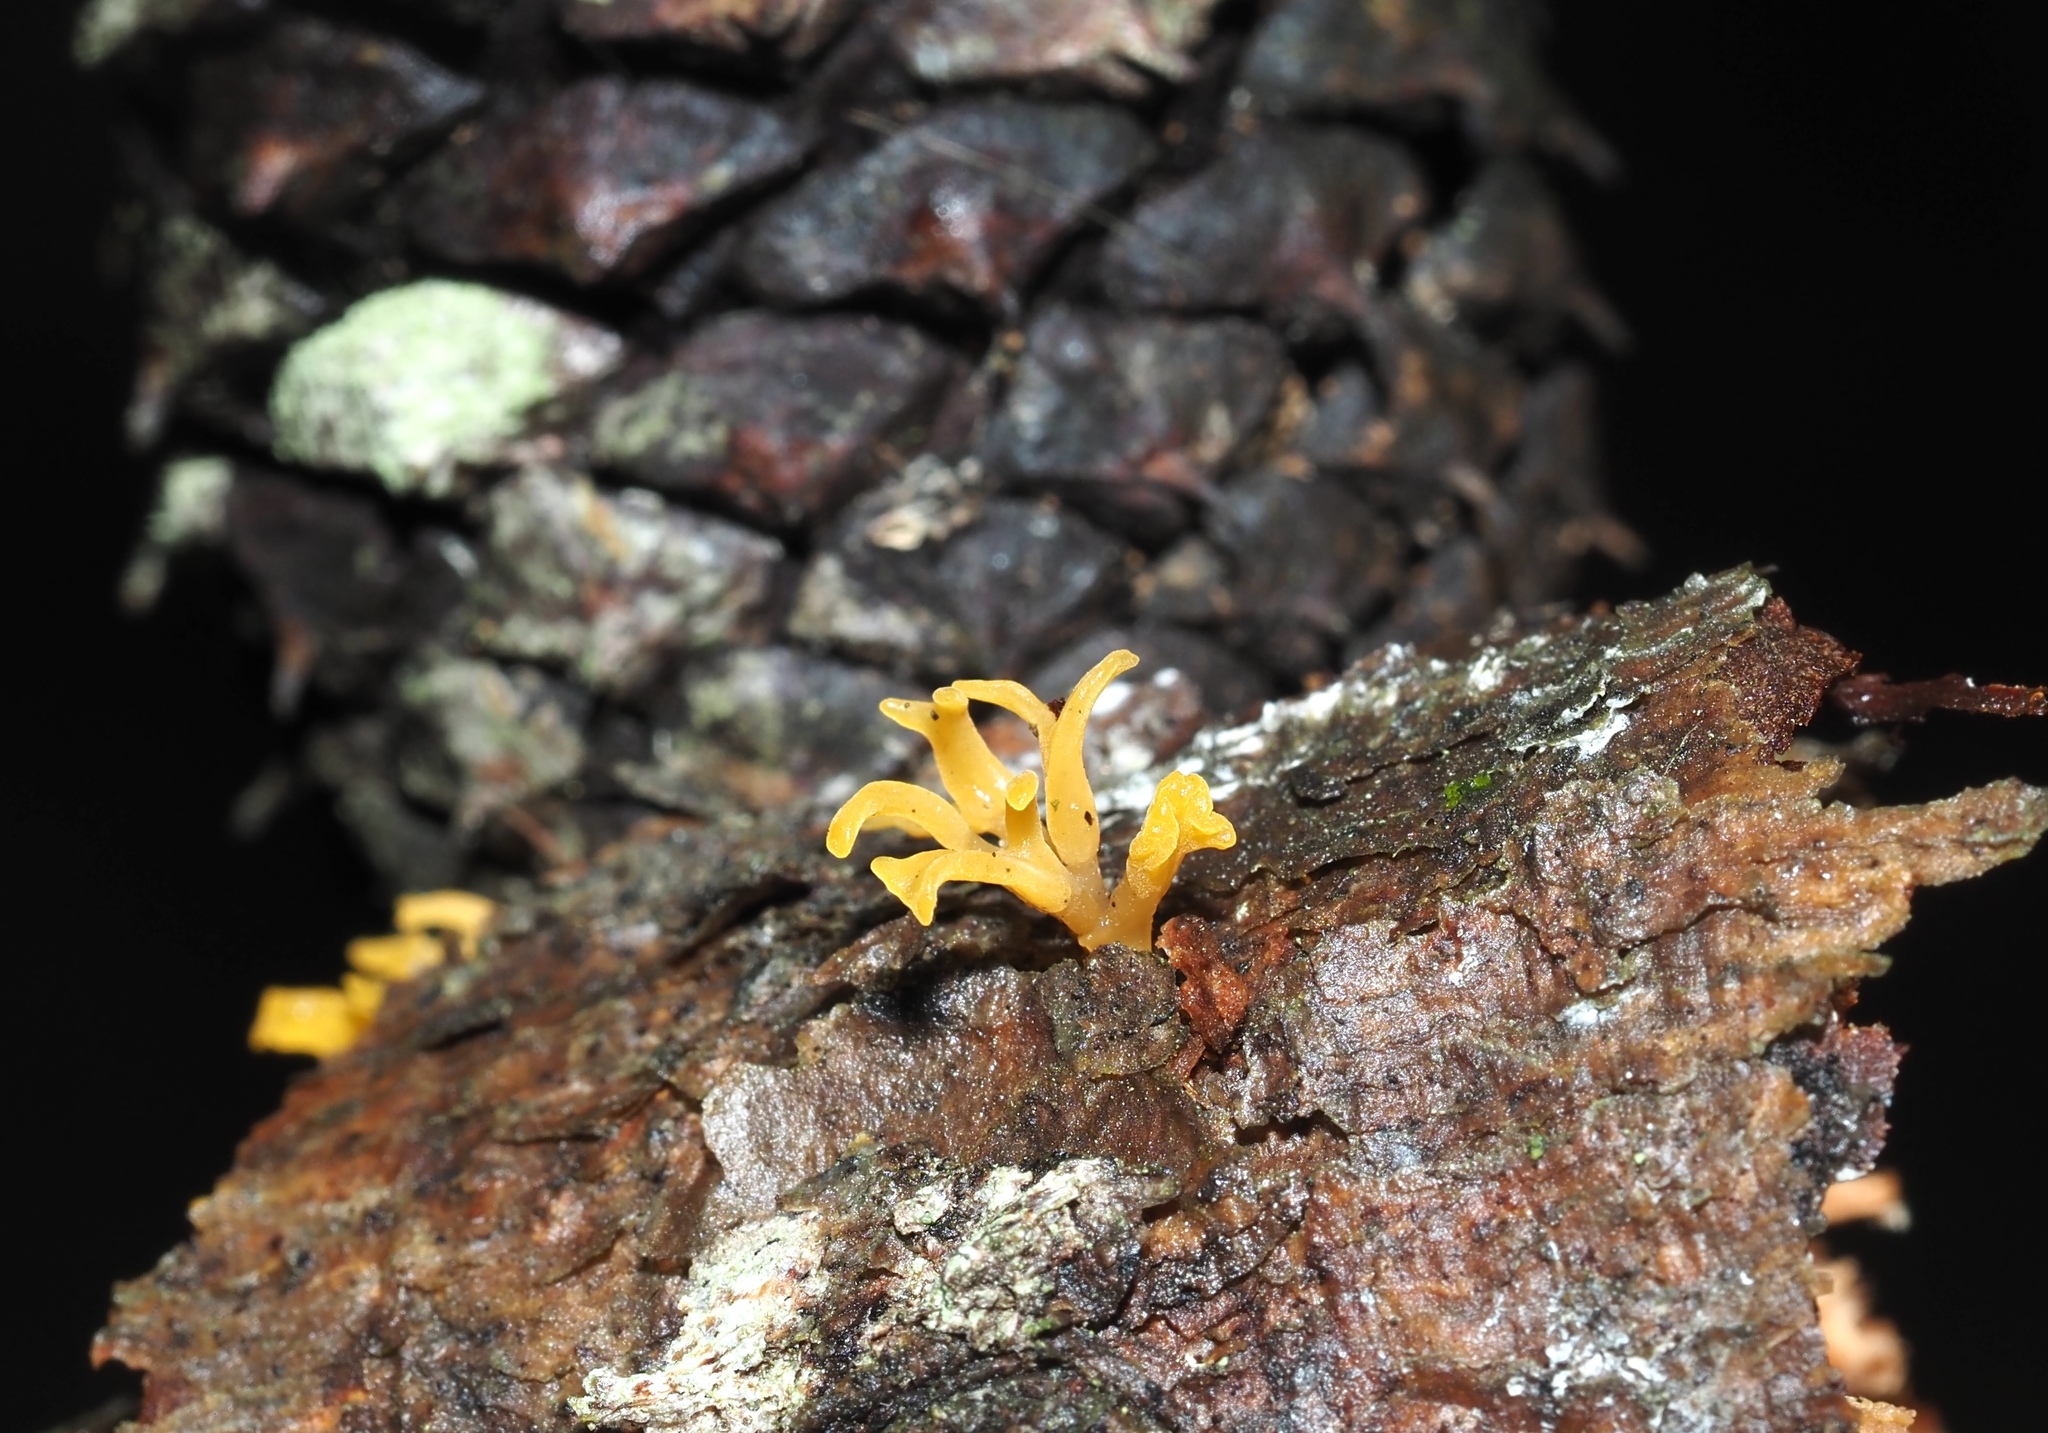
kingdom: Fungi
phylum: Basidiomycota
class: Dacrymycetes
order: Dacrymycetales
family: Dacrymycetaceae
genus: Calocera
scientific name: Calocera cornea
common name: Small stagshorn
